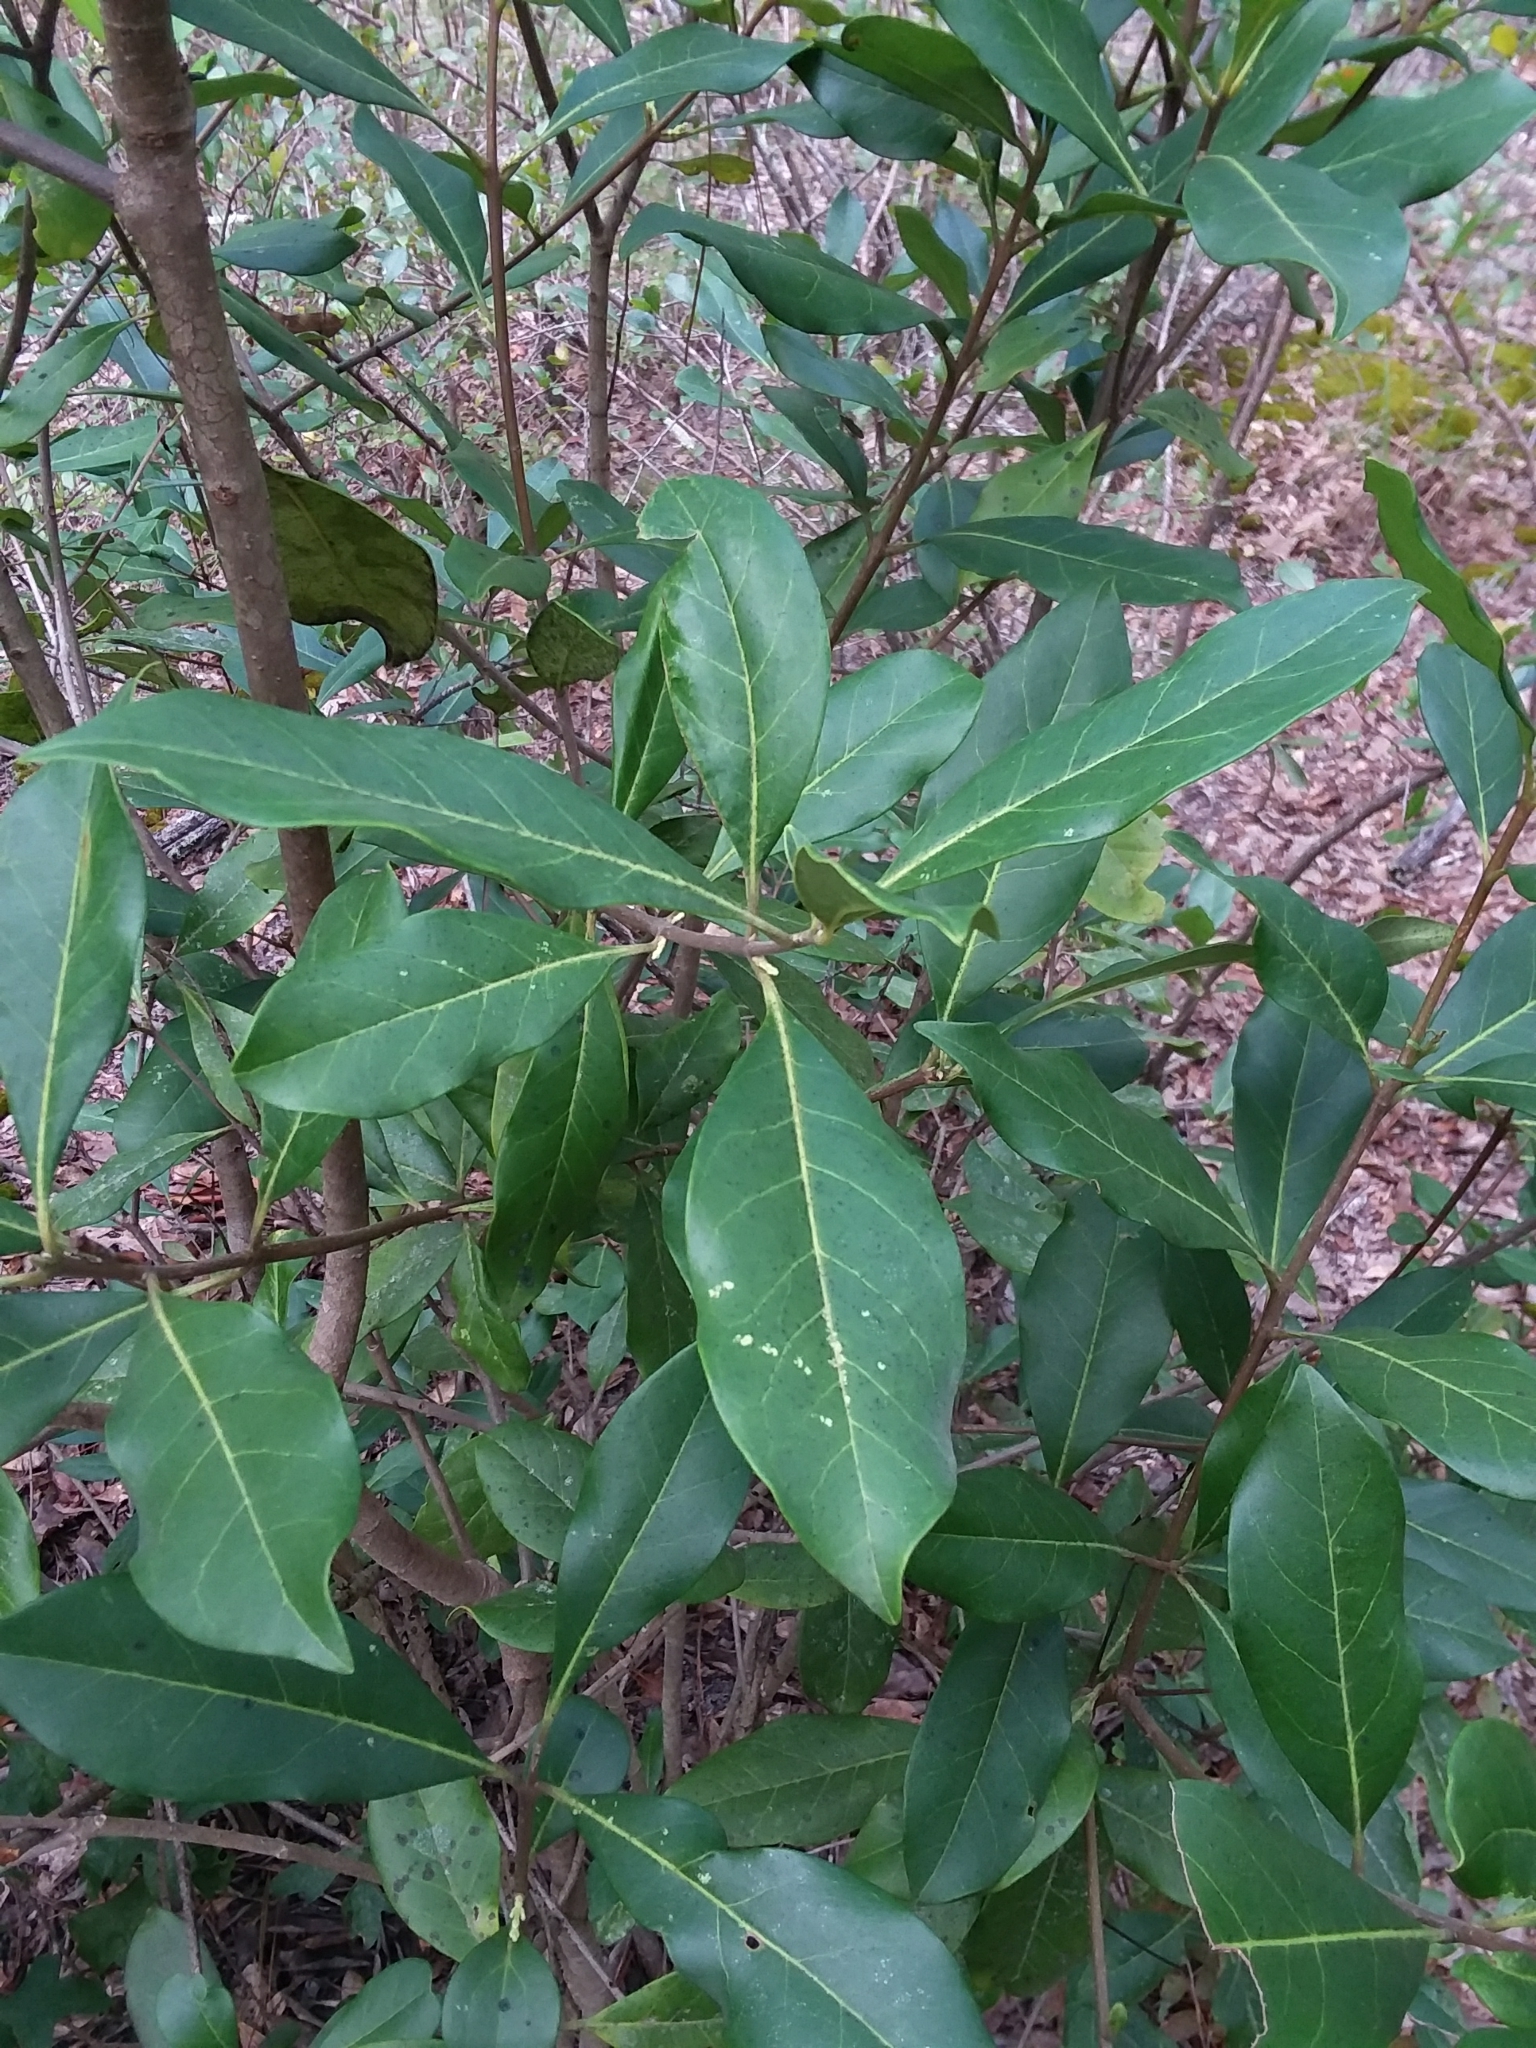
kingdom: Plantae
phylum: Tracheophyta
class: Magnoliopsida
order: Lamiales
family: Oleaceae
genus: Cartrema
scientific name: Cartrema americana
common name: Devilwood
